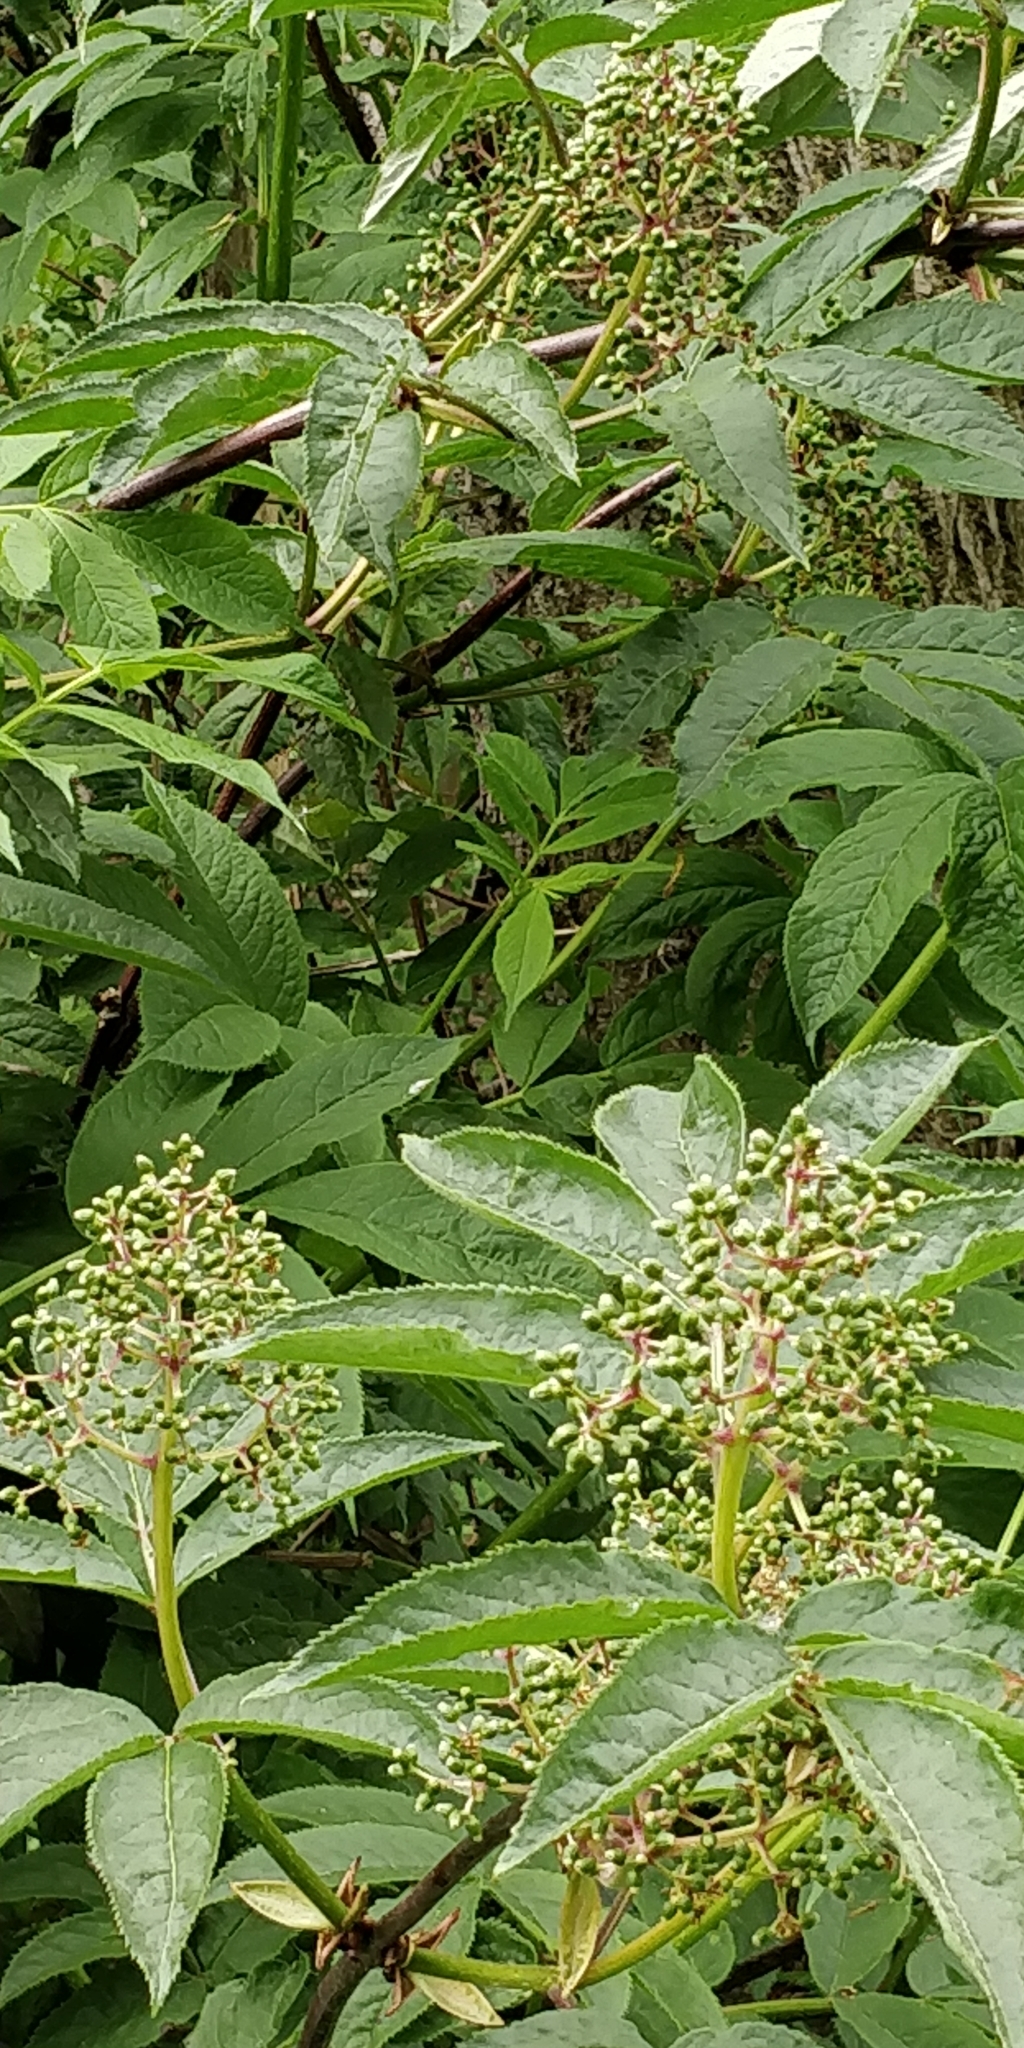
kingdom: Plantae
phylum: Tracheophyta
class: Magnoliopsida
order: Dipsacales
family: Viburnaceae
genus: Sambucus
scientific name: Sambucus racemosa
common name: Red-berried elder
